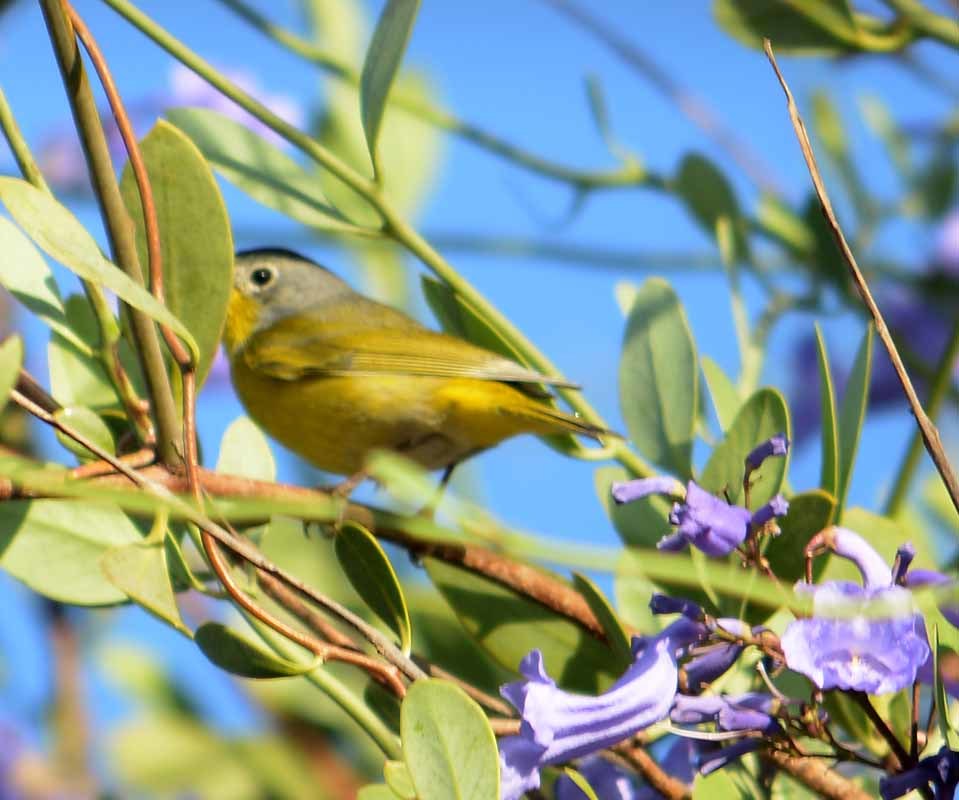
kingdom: Animalia
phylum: Chordata
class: Aves
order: Passeriformes
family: Parulidae
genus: Leiothlypis
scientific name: Leiothlypis ruficapilla
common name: Nashville warbler
